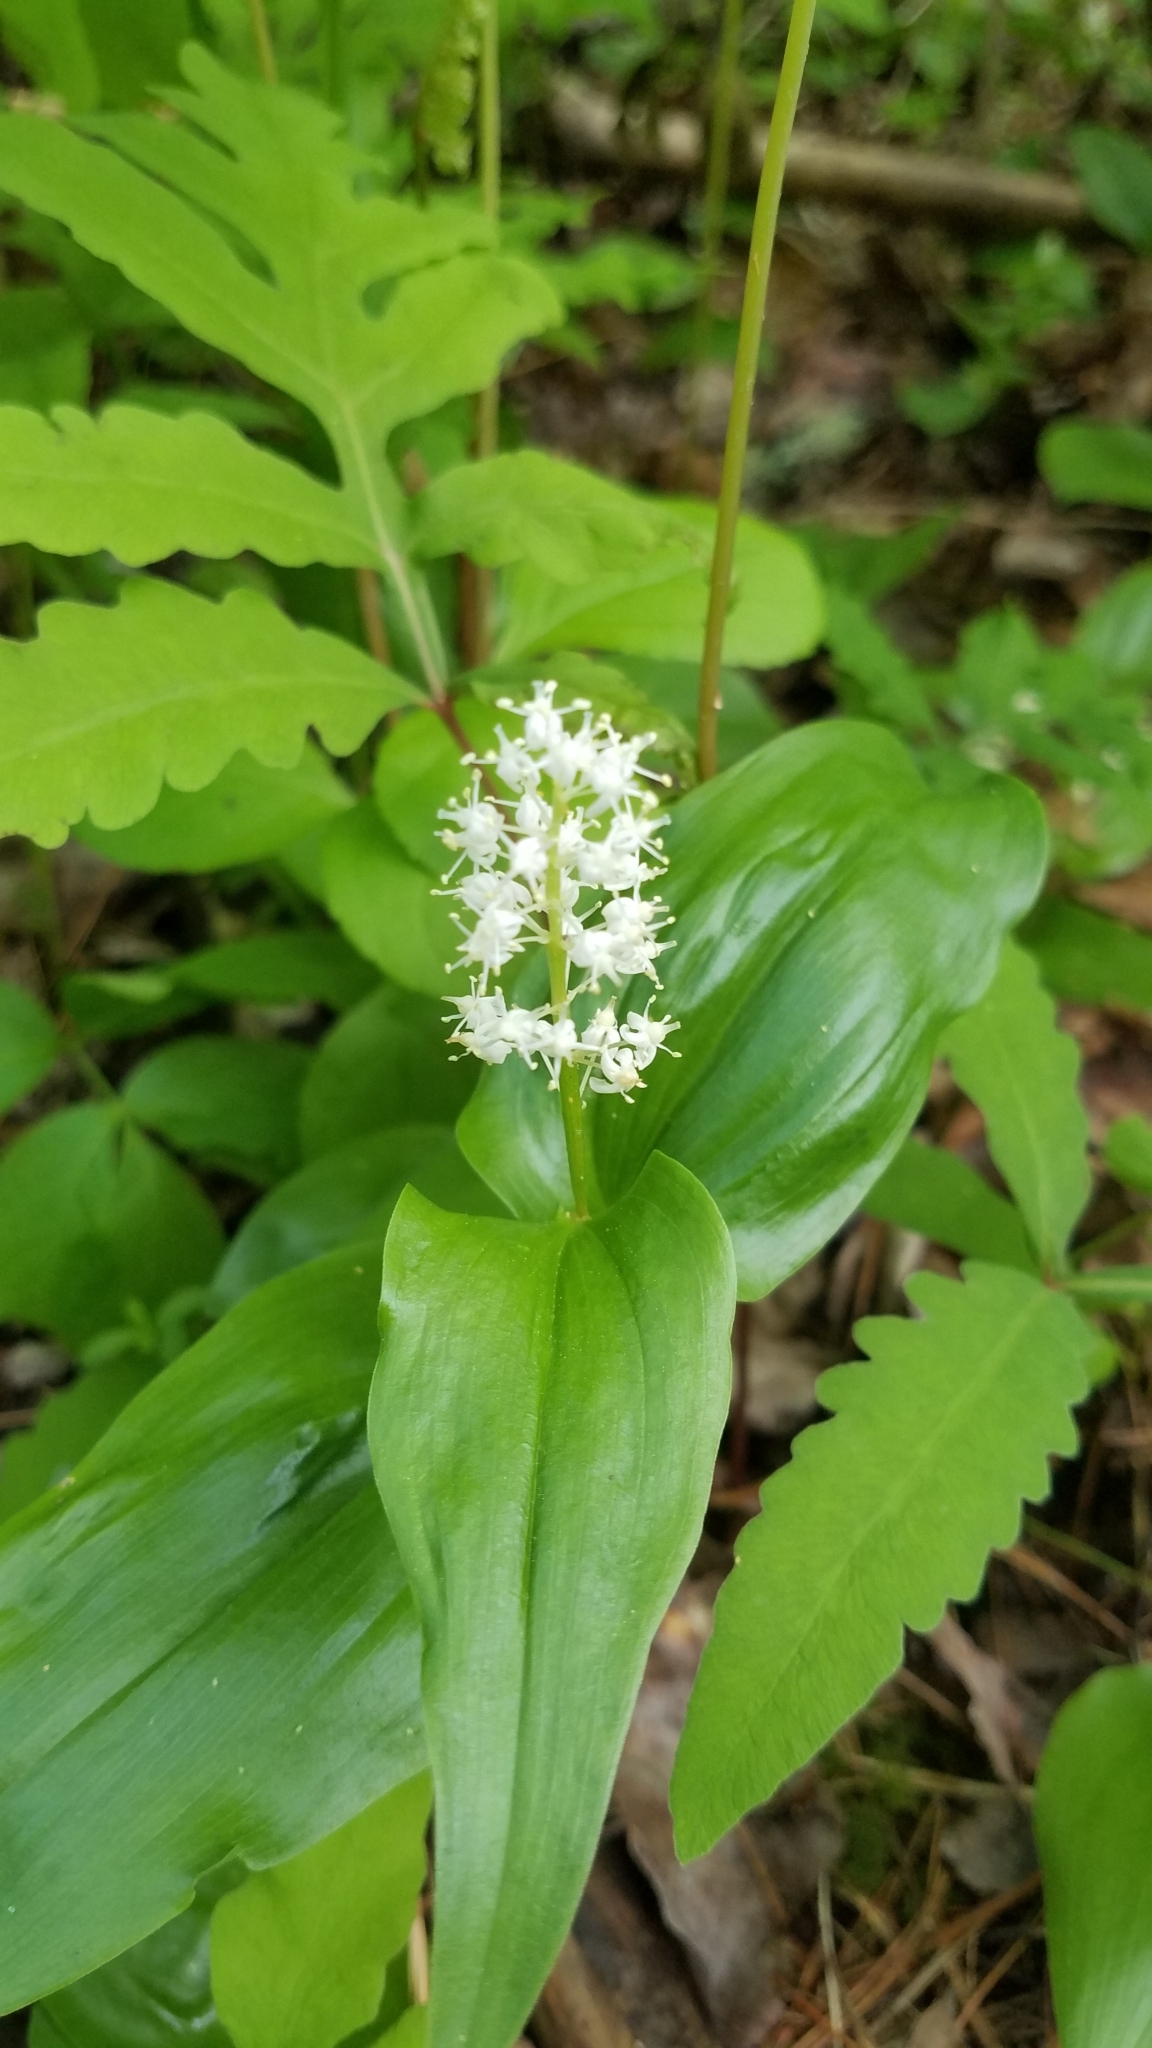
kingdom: Plantae
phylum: Tracheophyta
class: Liliopsida
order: Asparagales
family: Asparagaceae
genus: Maianthemum
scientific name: Maianthemum canadense
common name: False lily-of-the-valley
